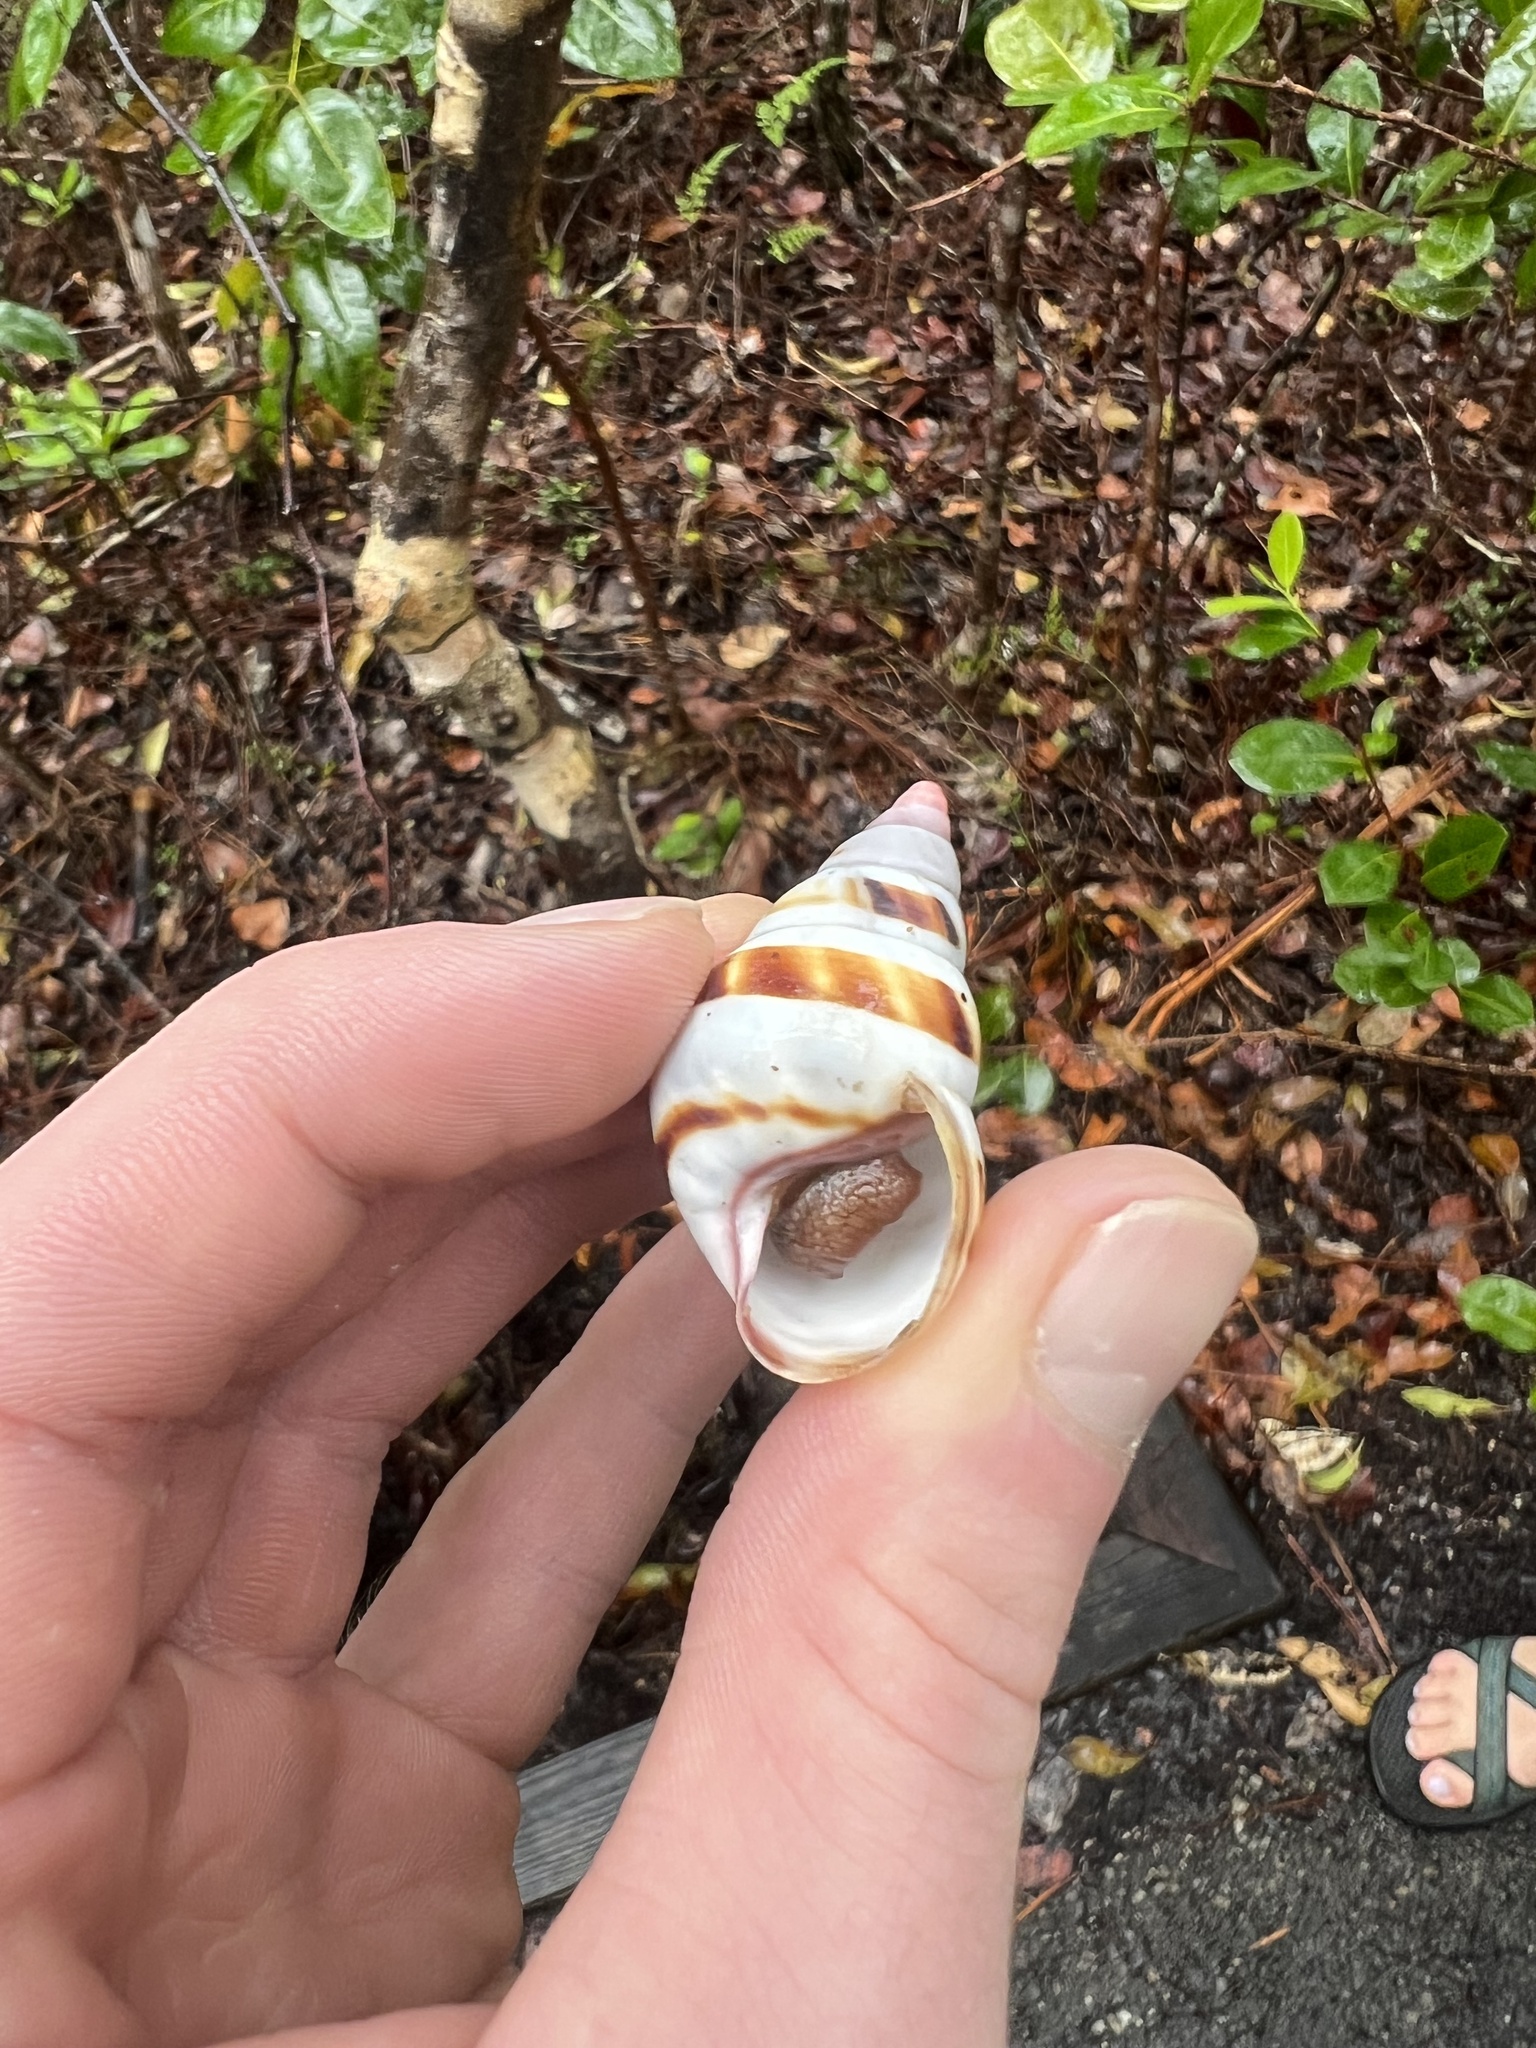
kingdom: Animalia
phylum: Mollusca
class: Gastropoda
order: Stylommatophora
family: Orthalicidae
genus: Liguus
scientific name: Liguus fasciatus
